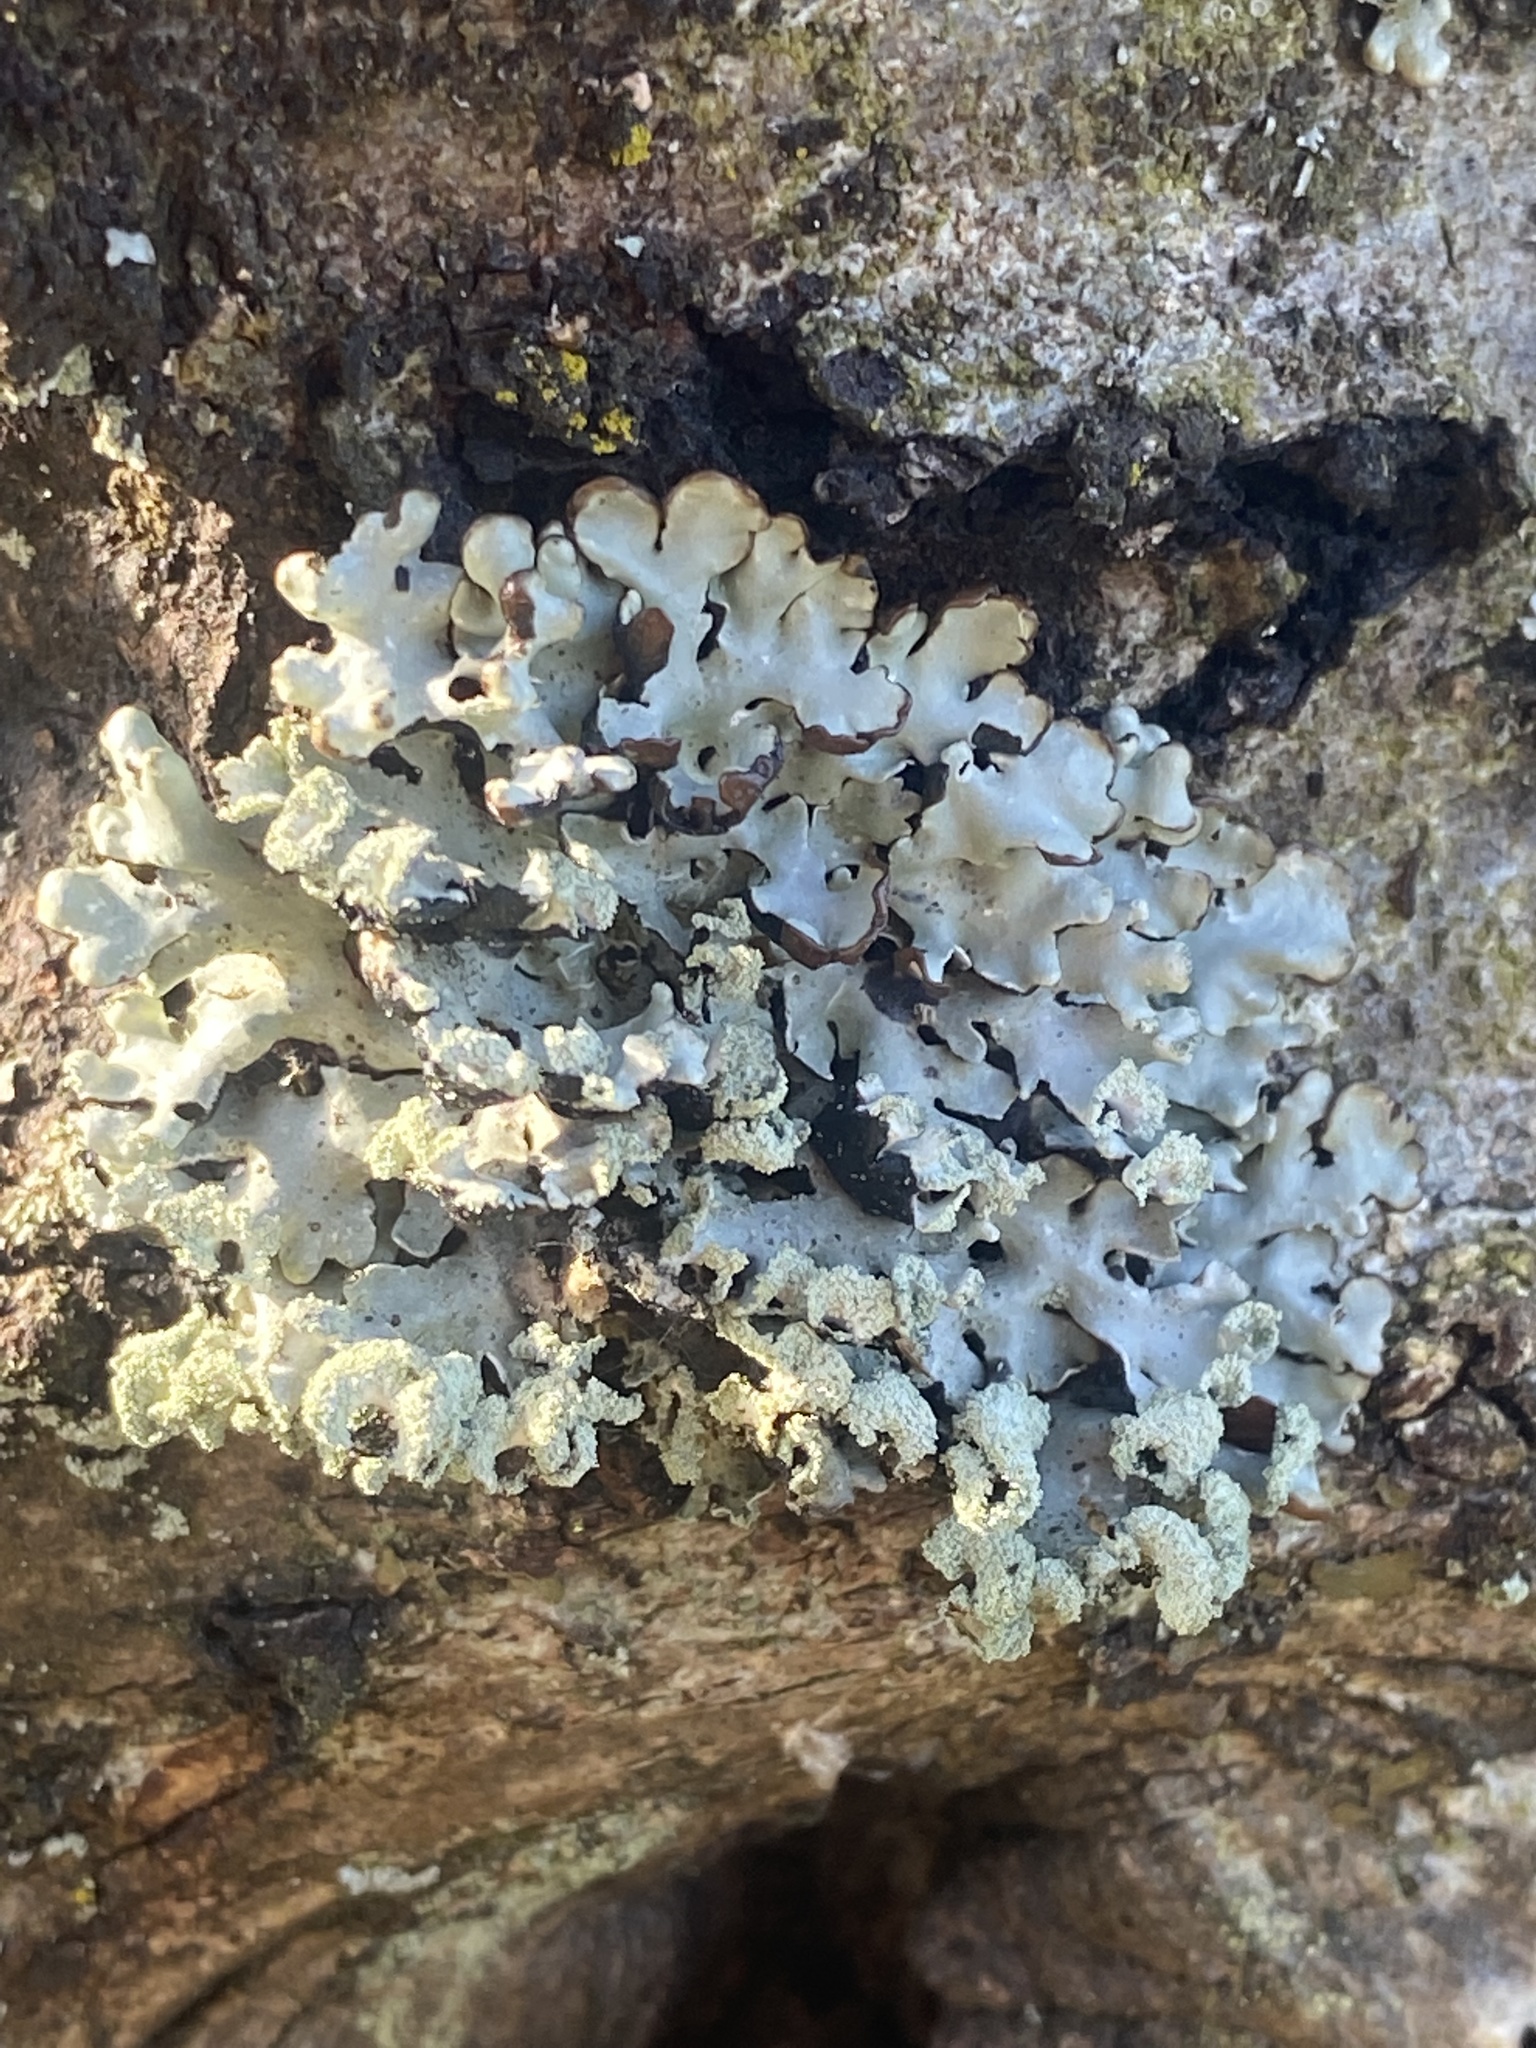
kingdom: Fungi
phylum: Ascomycota
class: Lecanoromycetes
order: Lecanorales
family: Parmeliaceae
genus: Hypogymnia
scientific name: Hypogymnia physodes
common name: Dark crottle
